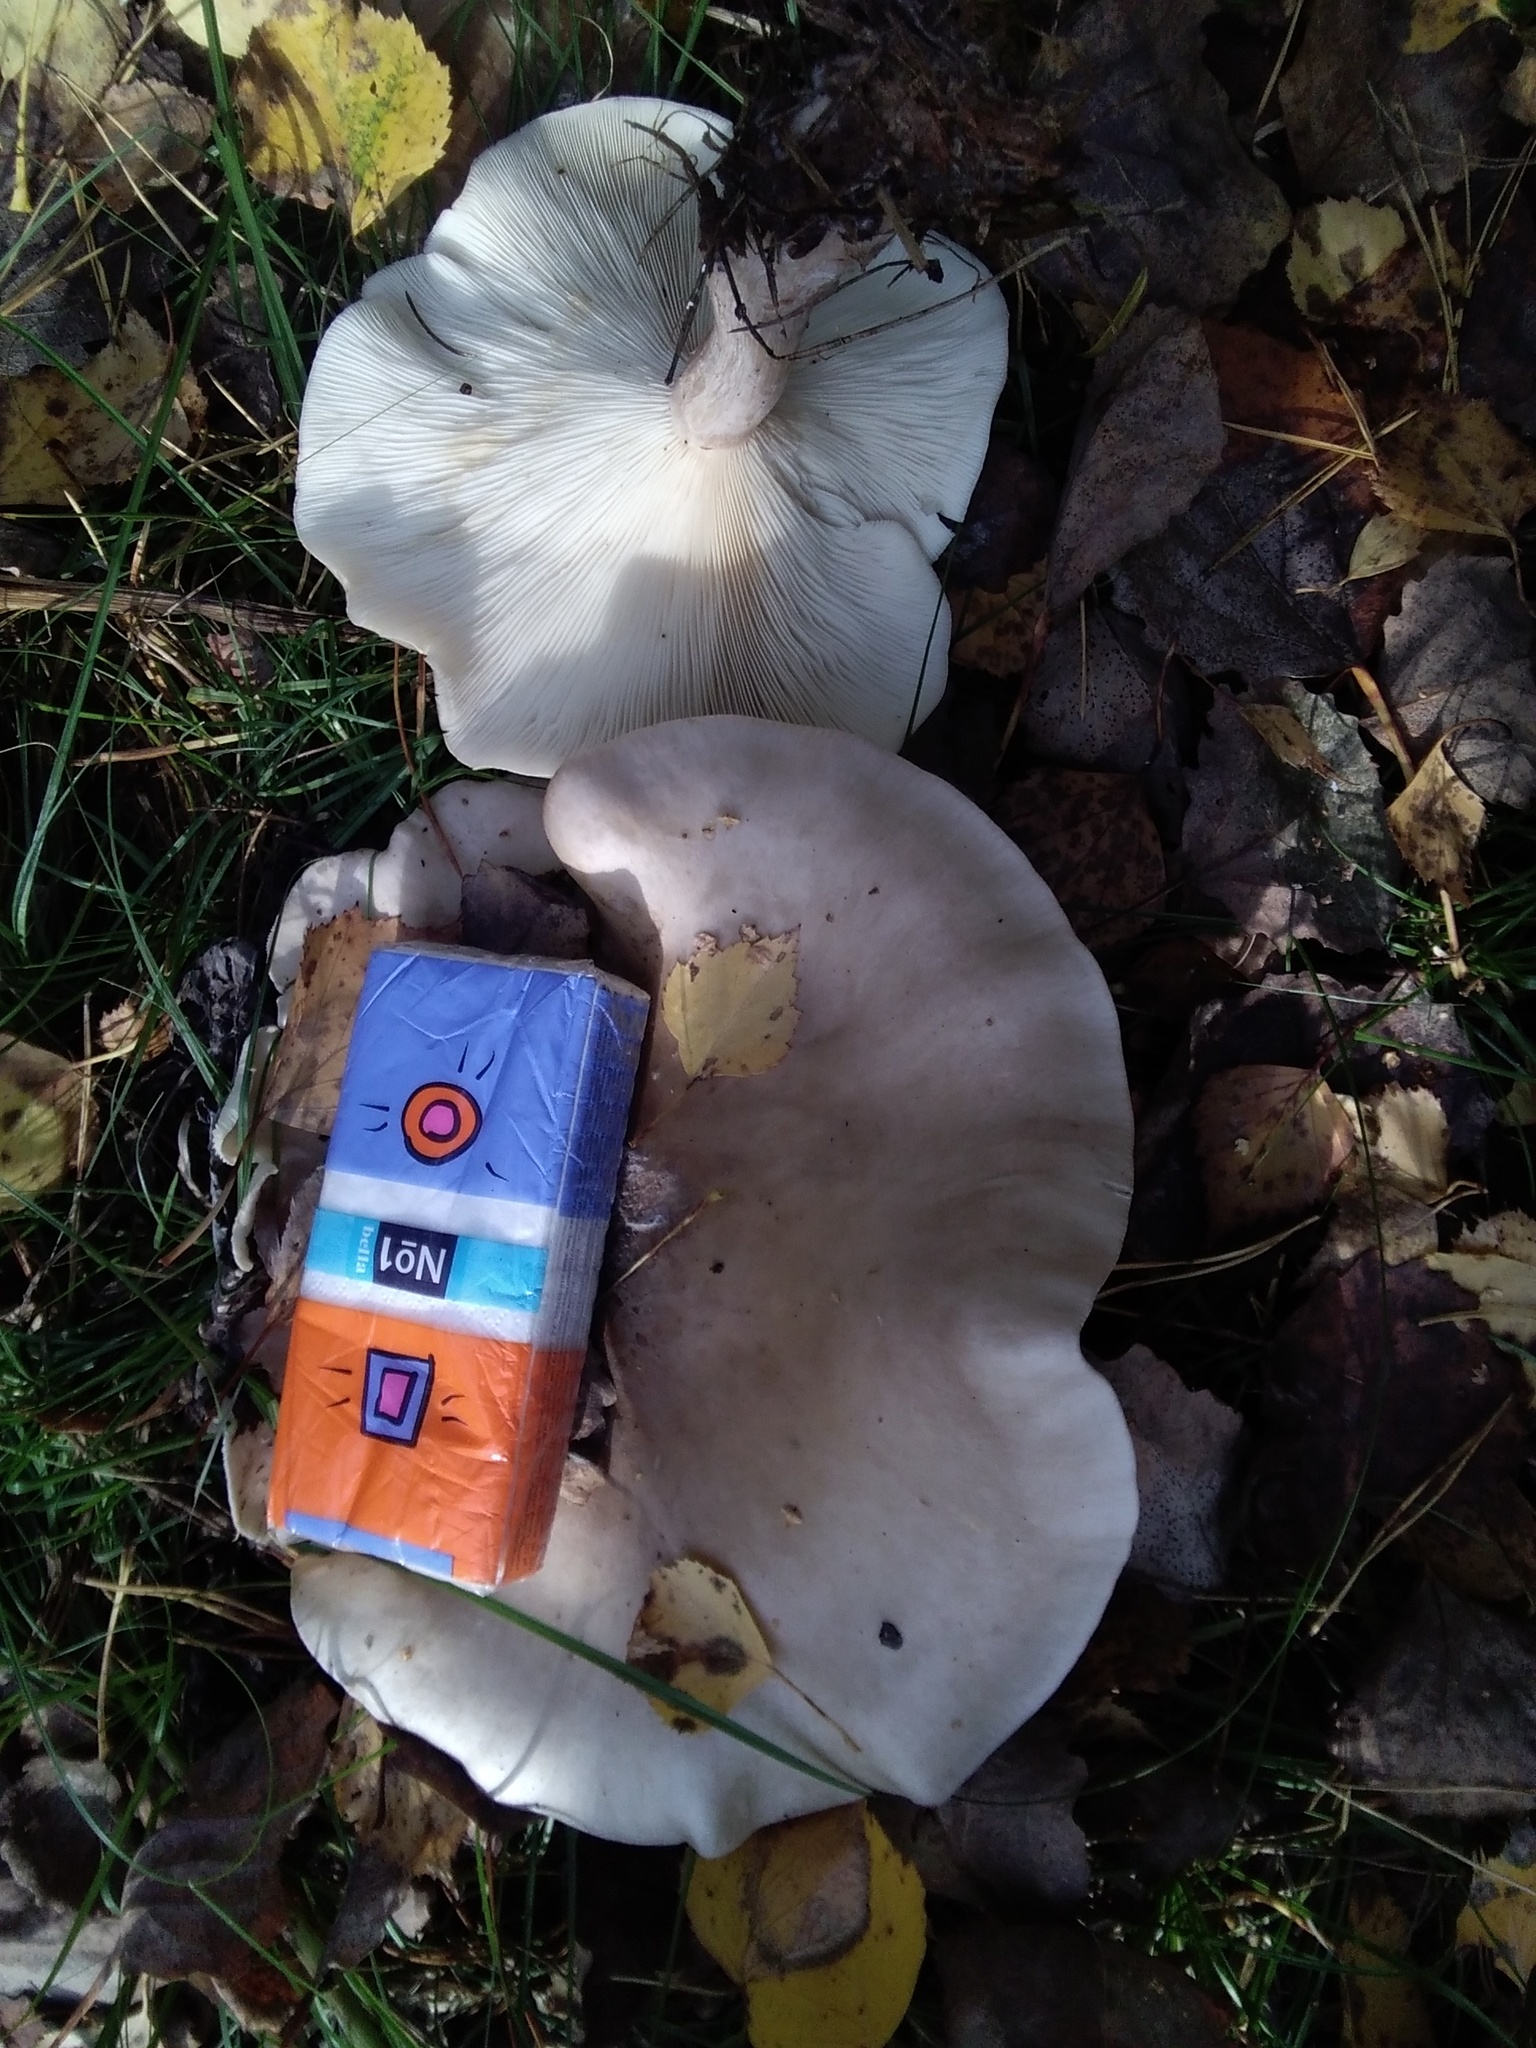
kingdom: Fungi
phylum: Basidiomycota
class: Agaricomycetes
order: Agaricales
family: Tricholomataceae
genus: Clitocybe
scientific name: Clitocybe nebularis
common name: Clouded agaric
